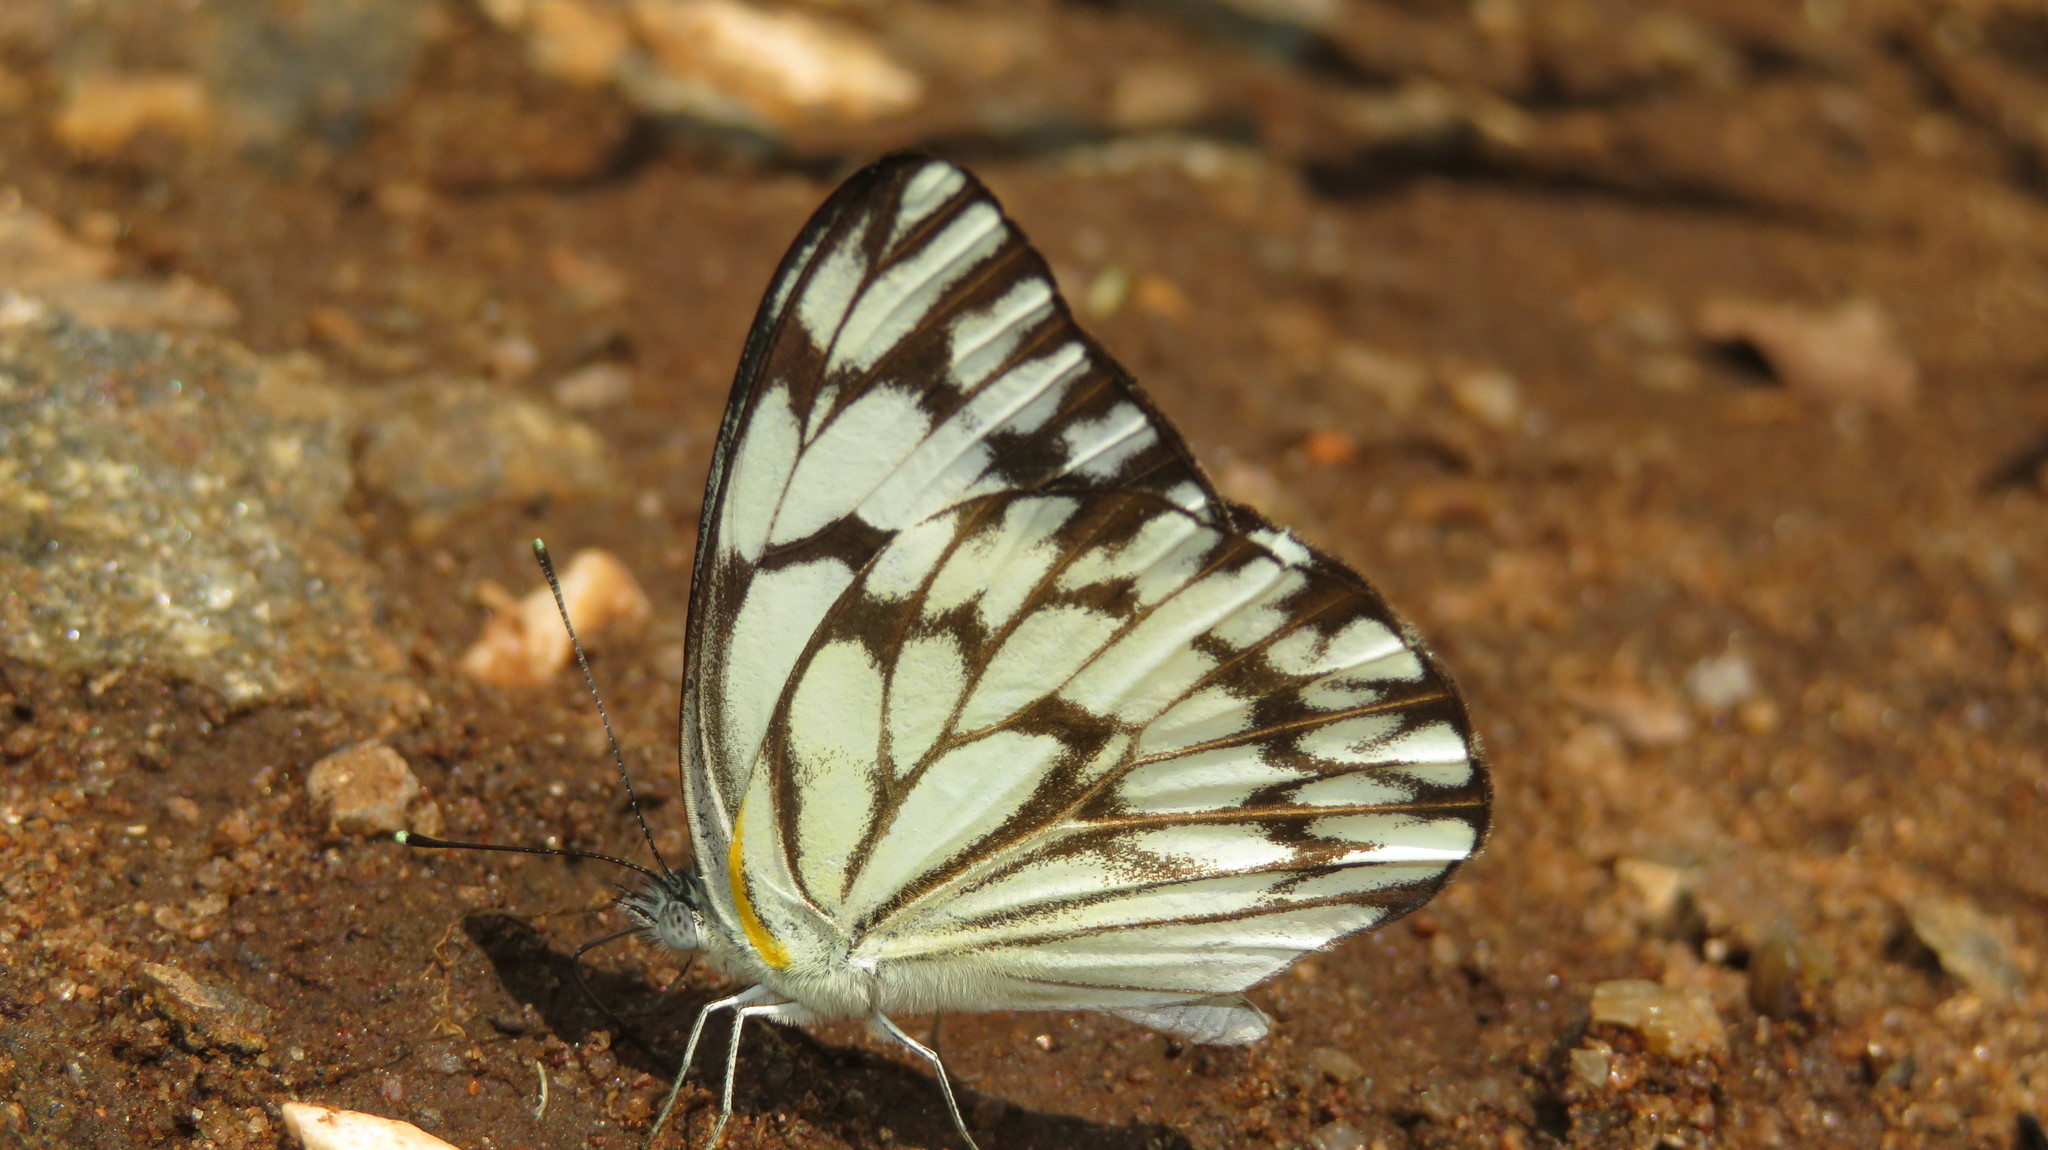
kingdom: Animalia
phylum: Arthropoda
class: Insecta
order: Lepidoptera
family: Pieridae
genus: Belenois
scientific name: Belenois gidica
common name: Pointed caper white
